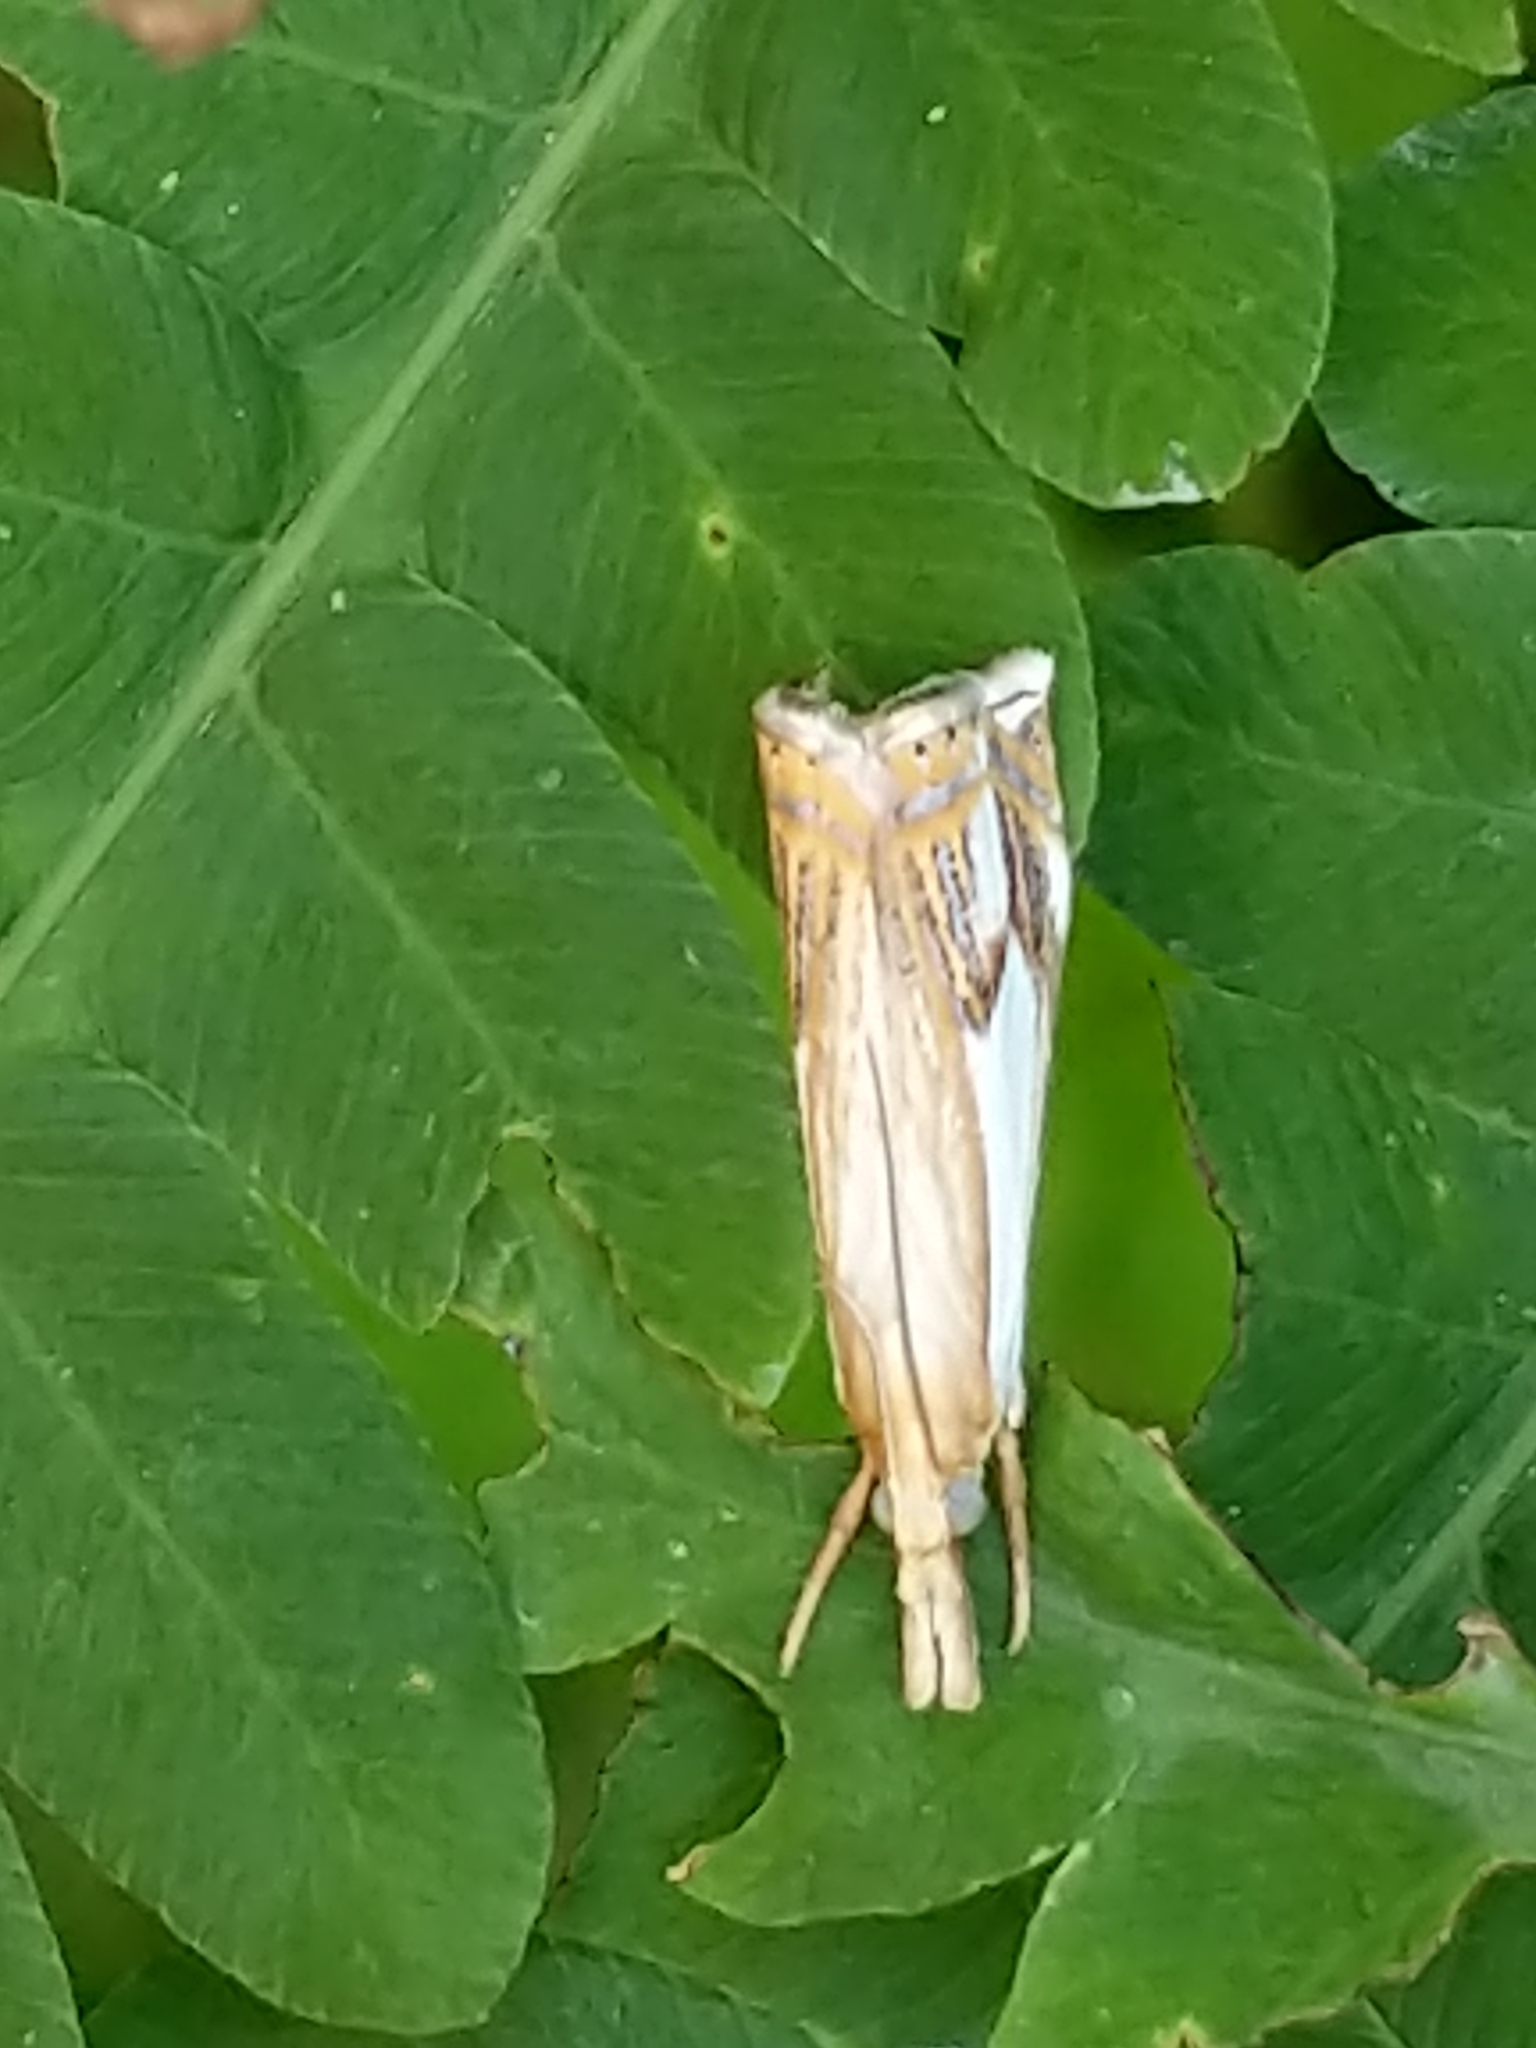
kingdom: Animalia
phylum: Arthropoda
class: Insecta
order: Lepidoptera
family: Crambidae
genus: Crambus
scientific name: Crambus agitatellus
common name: Double-banded grass-veneer
